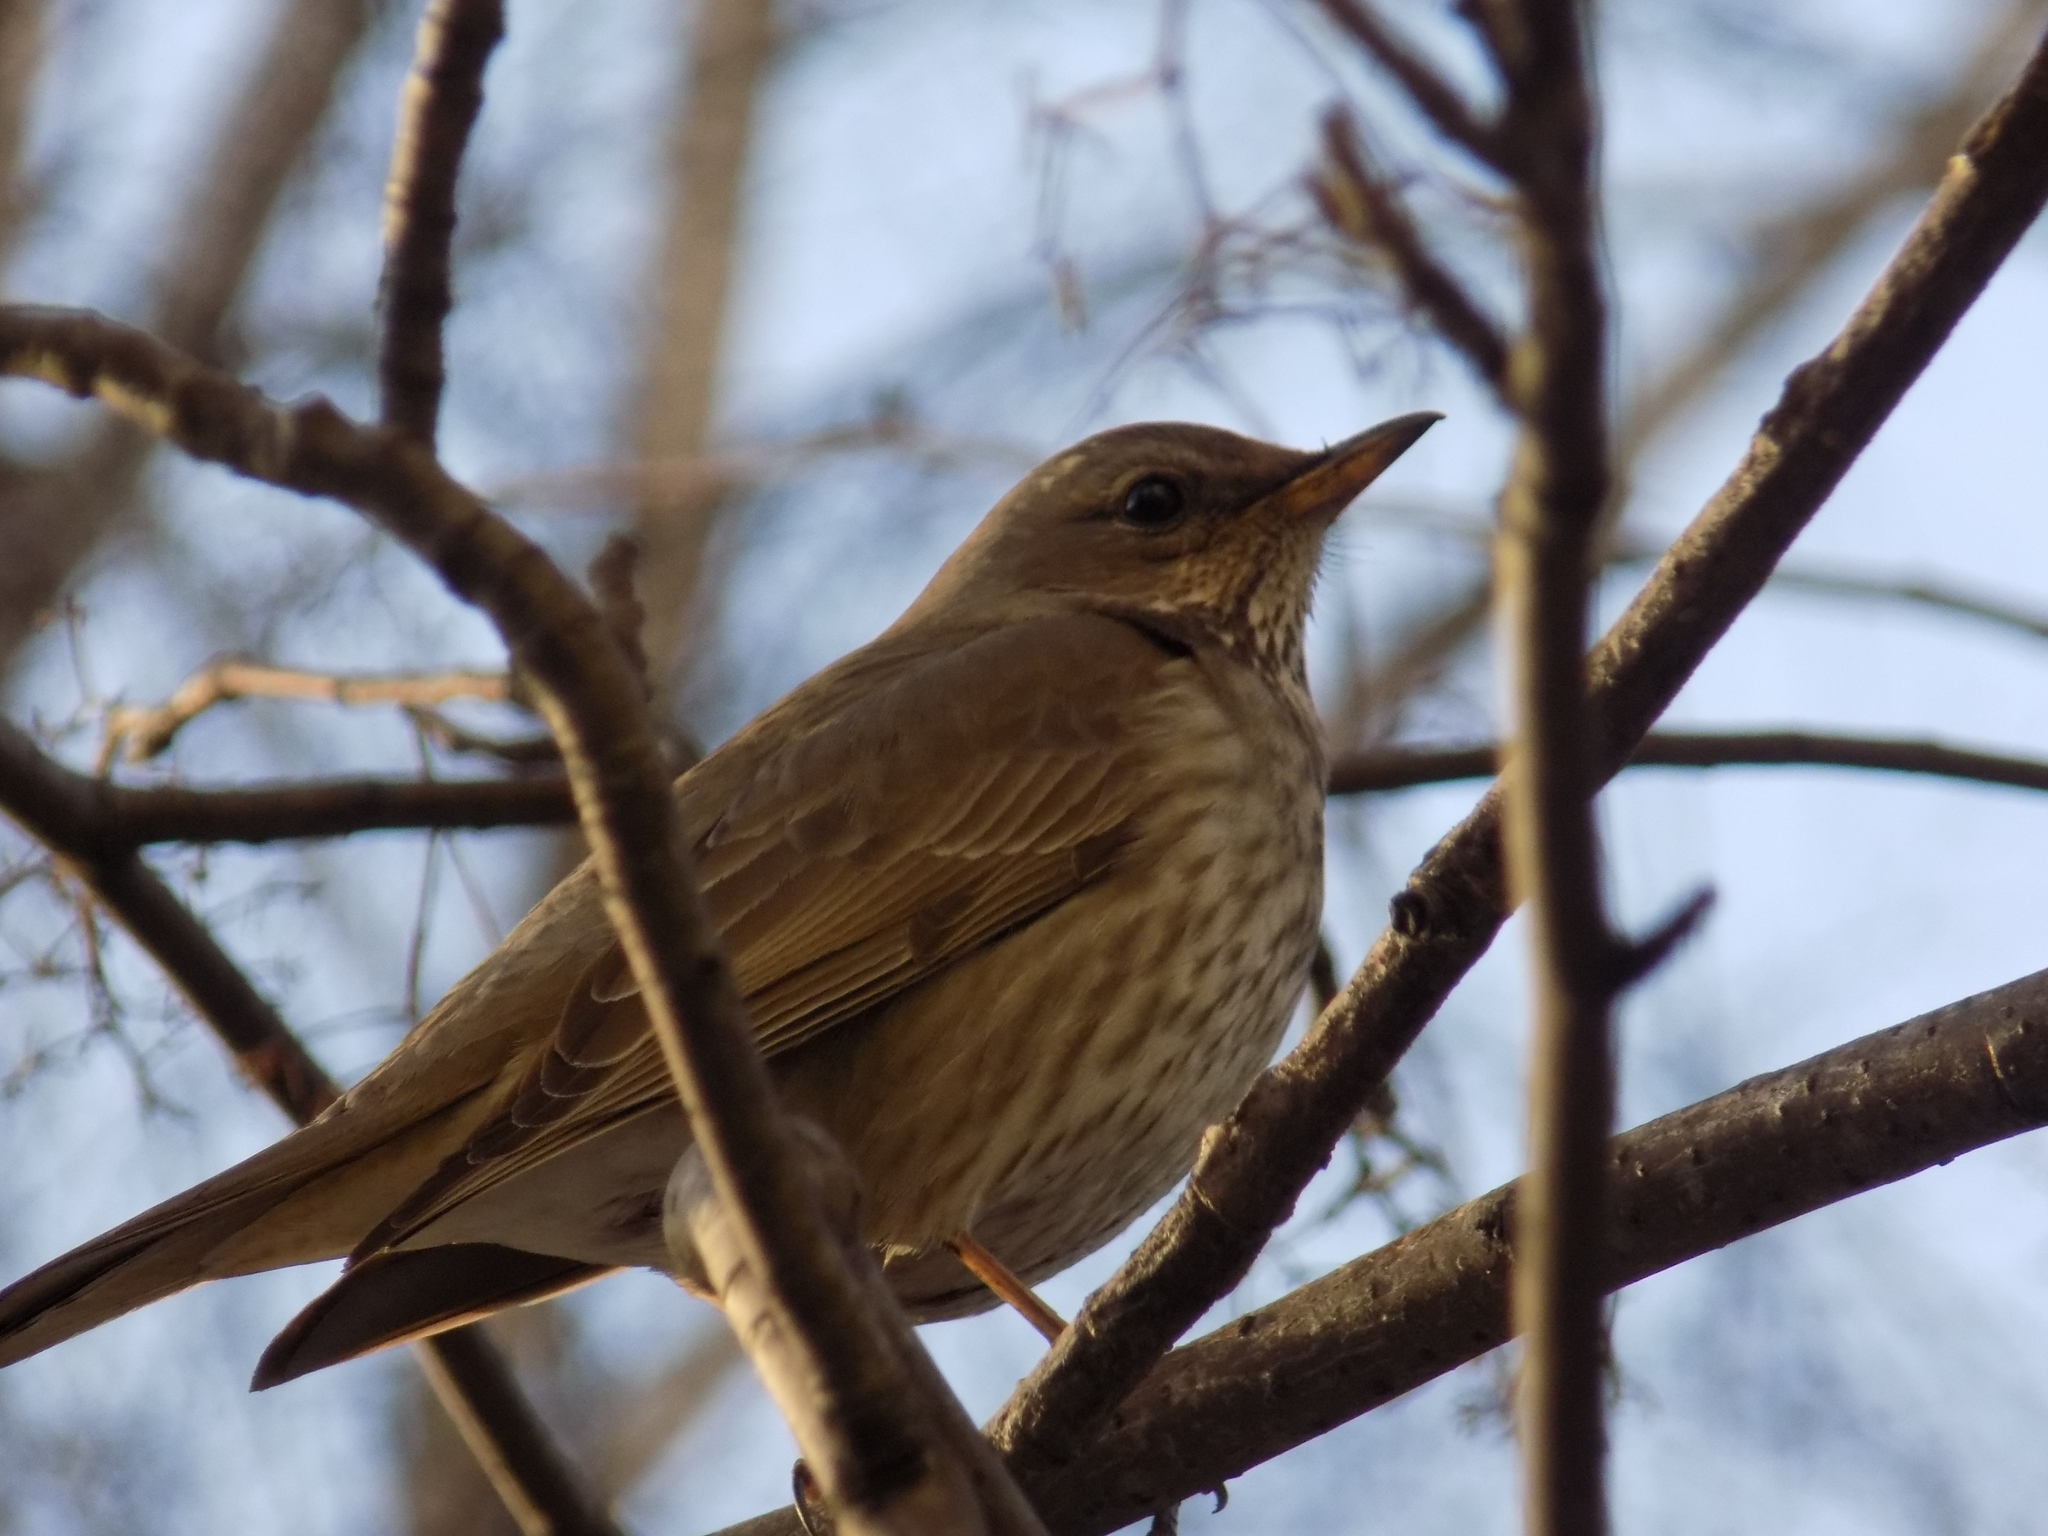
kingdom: Animalia
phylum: Chordata
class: Aves
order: Passeriformes
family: Turdidae
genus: Turdus
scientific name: Turdus atrogularis
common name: Black-throated thrush
